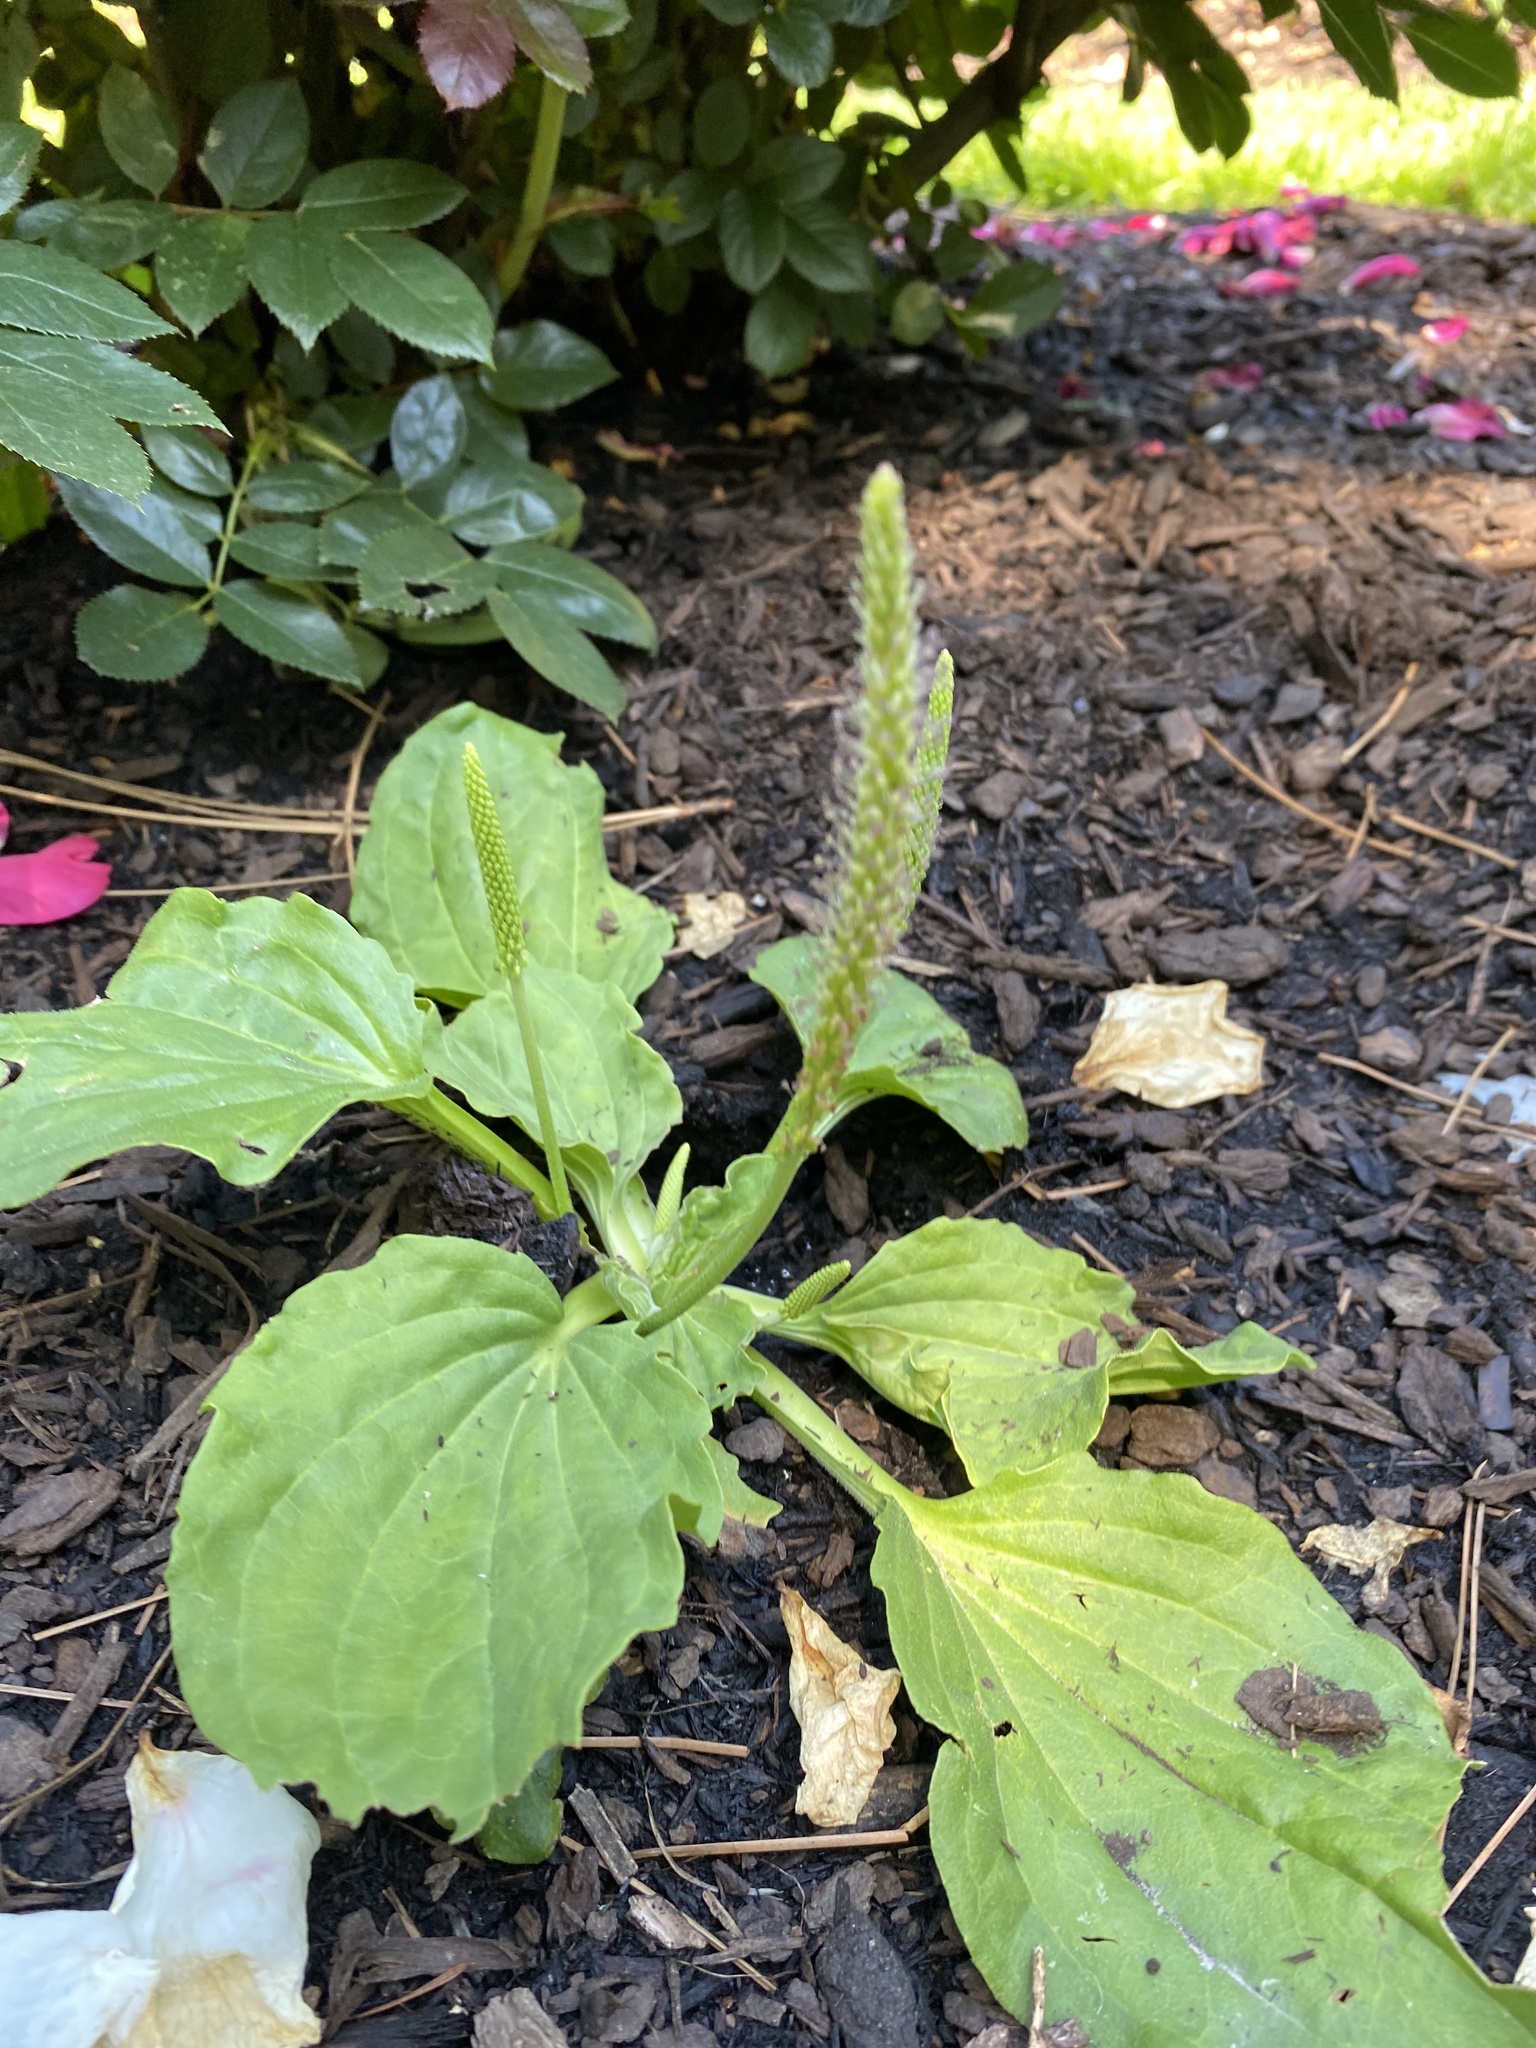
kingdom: Plantae
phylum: Tracheophyta
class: Magnoliopsida
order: Lamiales
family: Plantaginaceae
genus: Plantago
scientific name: Plantago major
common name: Common plantain
